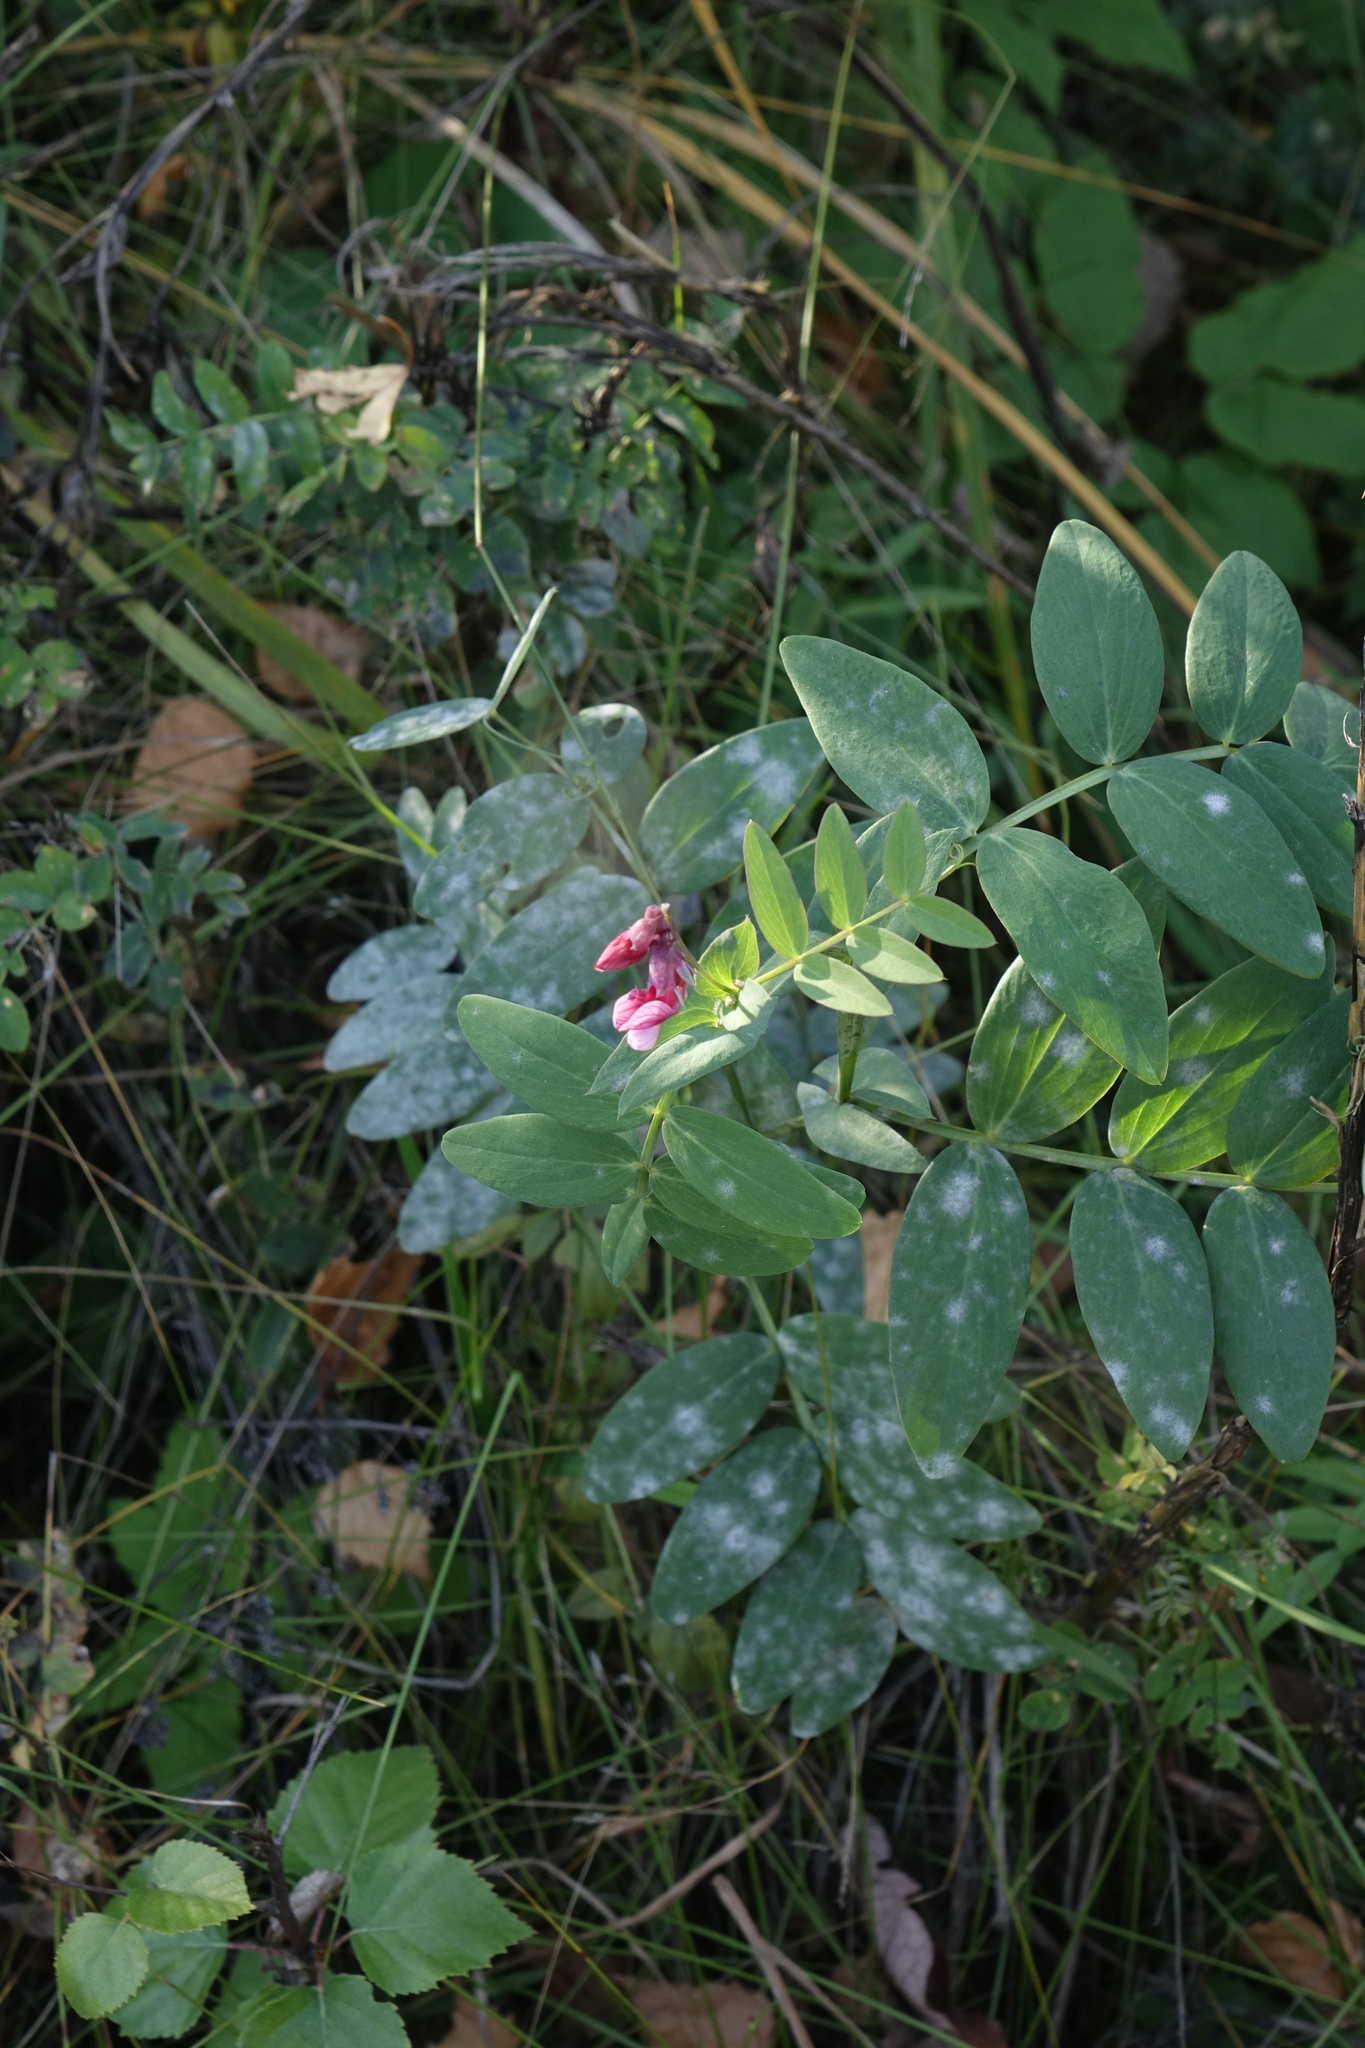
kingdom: Plantae
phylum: Tracheophyta
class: Magnoliopsida
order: Fabales
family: Fabaceae
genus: Lathyrus
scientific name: Lathyrus pisiformis
